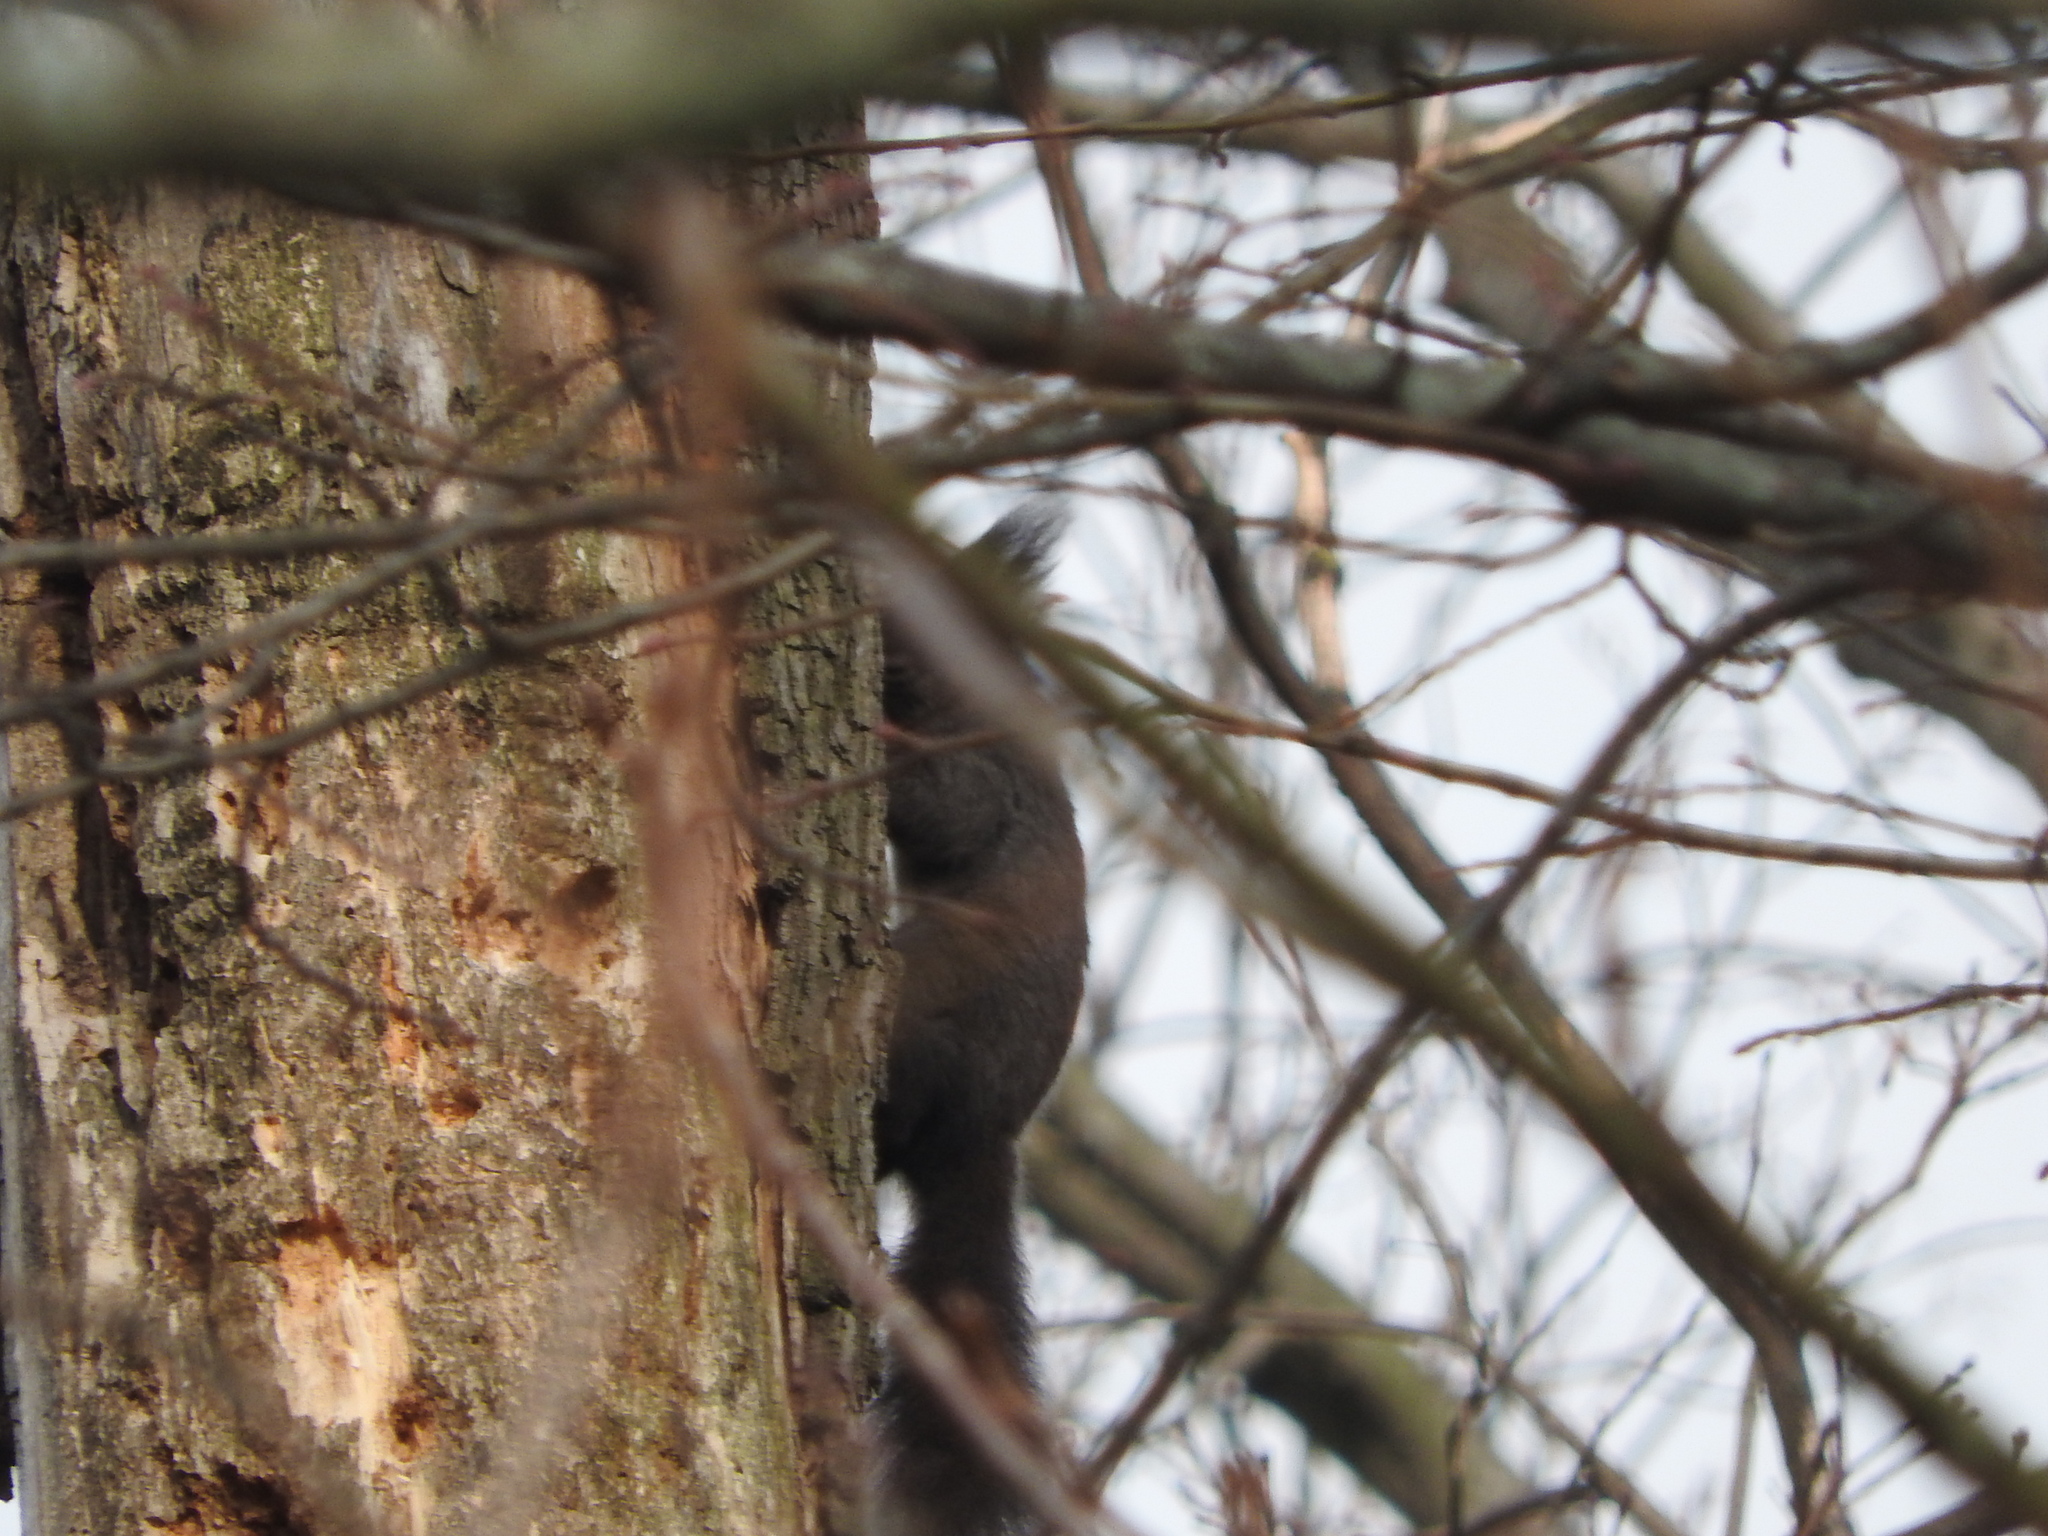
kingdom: Animalia
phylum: Chordata
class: Mammalia
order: Rodentia
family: Sciuridae
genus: Sciurus
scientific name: Sciurus vulgaris
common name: Eurasian red squirrel
